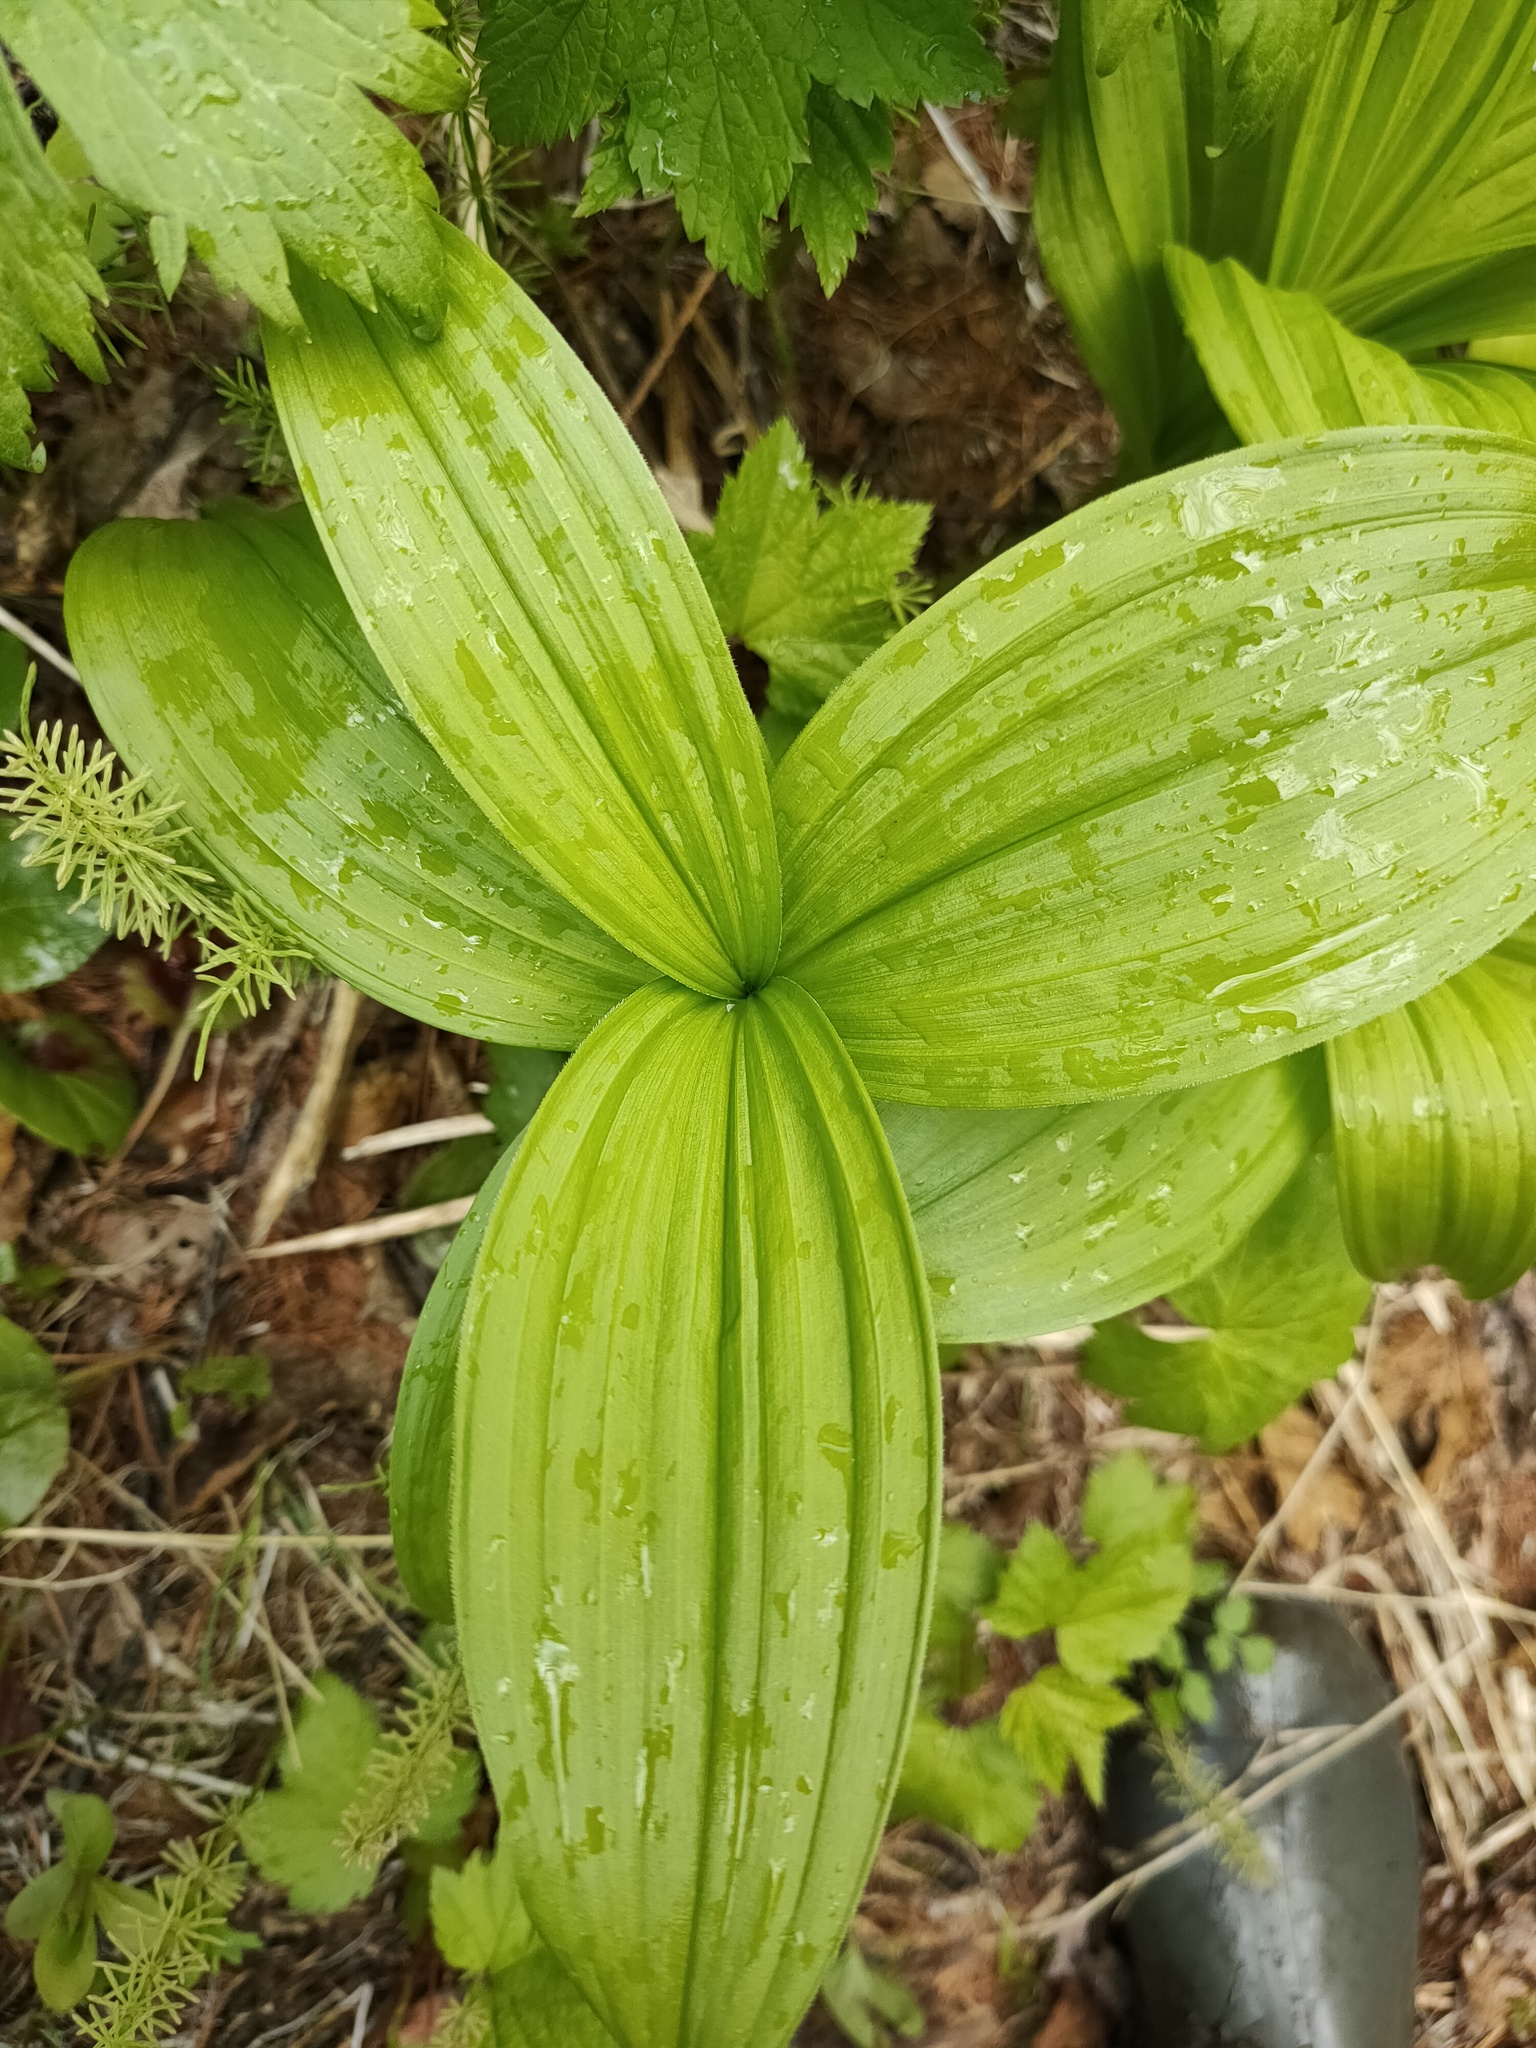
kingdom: Plantae
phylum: Tracheophyta
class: Liliopsida
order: Liliales
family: Melanthiaceae
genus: Veratrum
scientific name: Veratrum lobelianum
